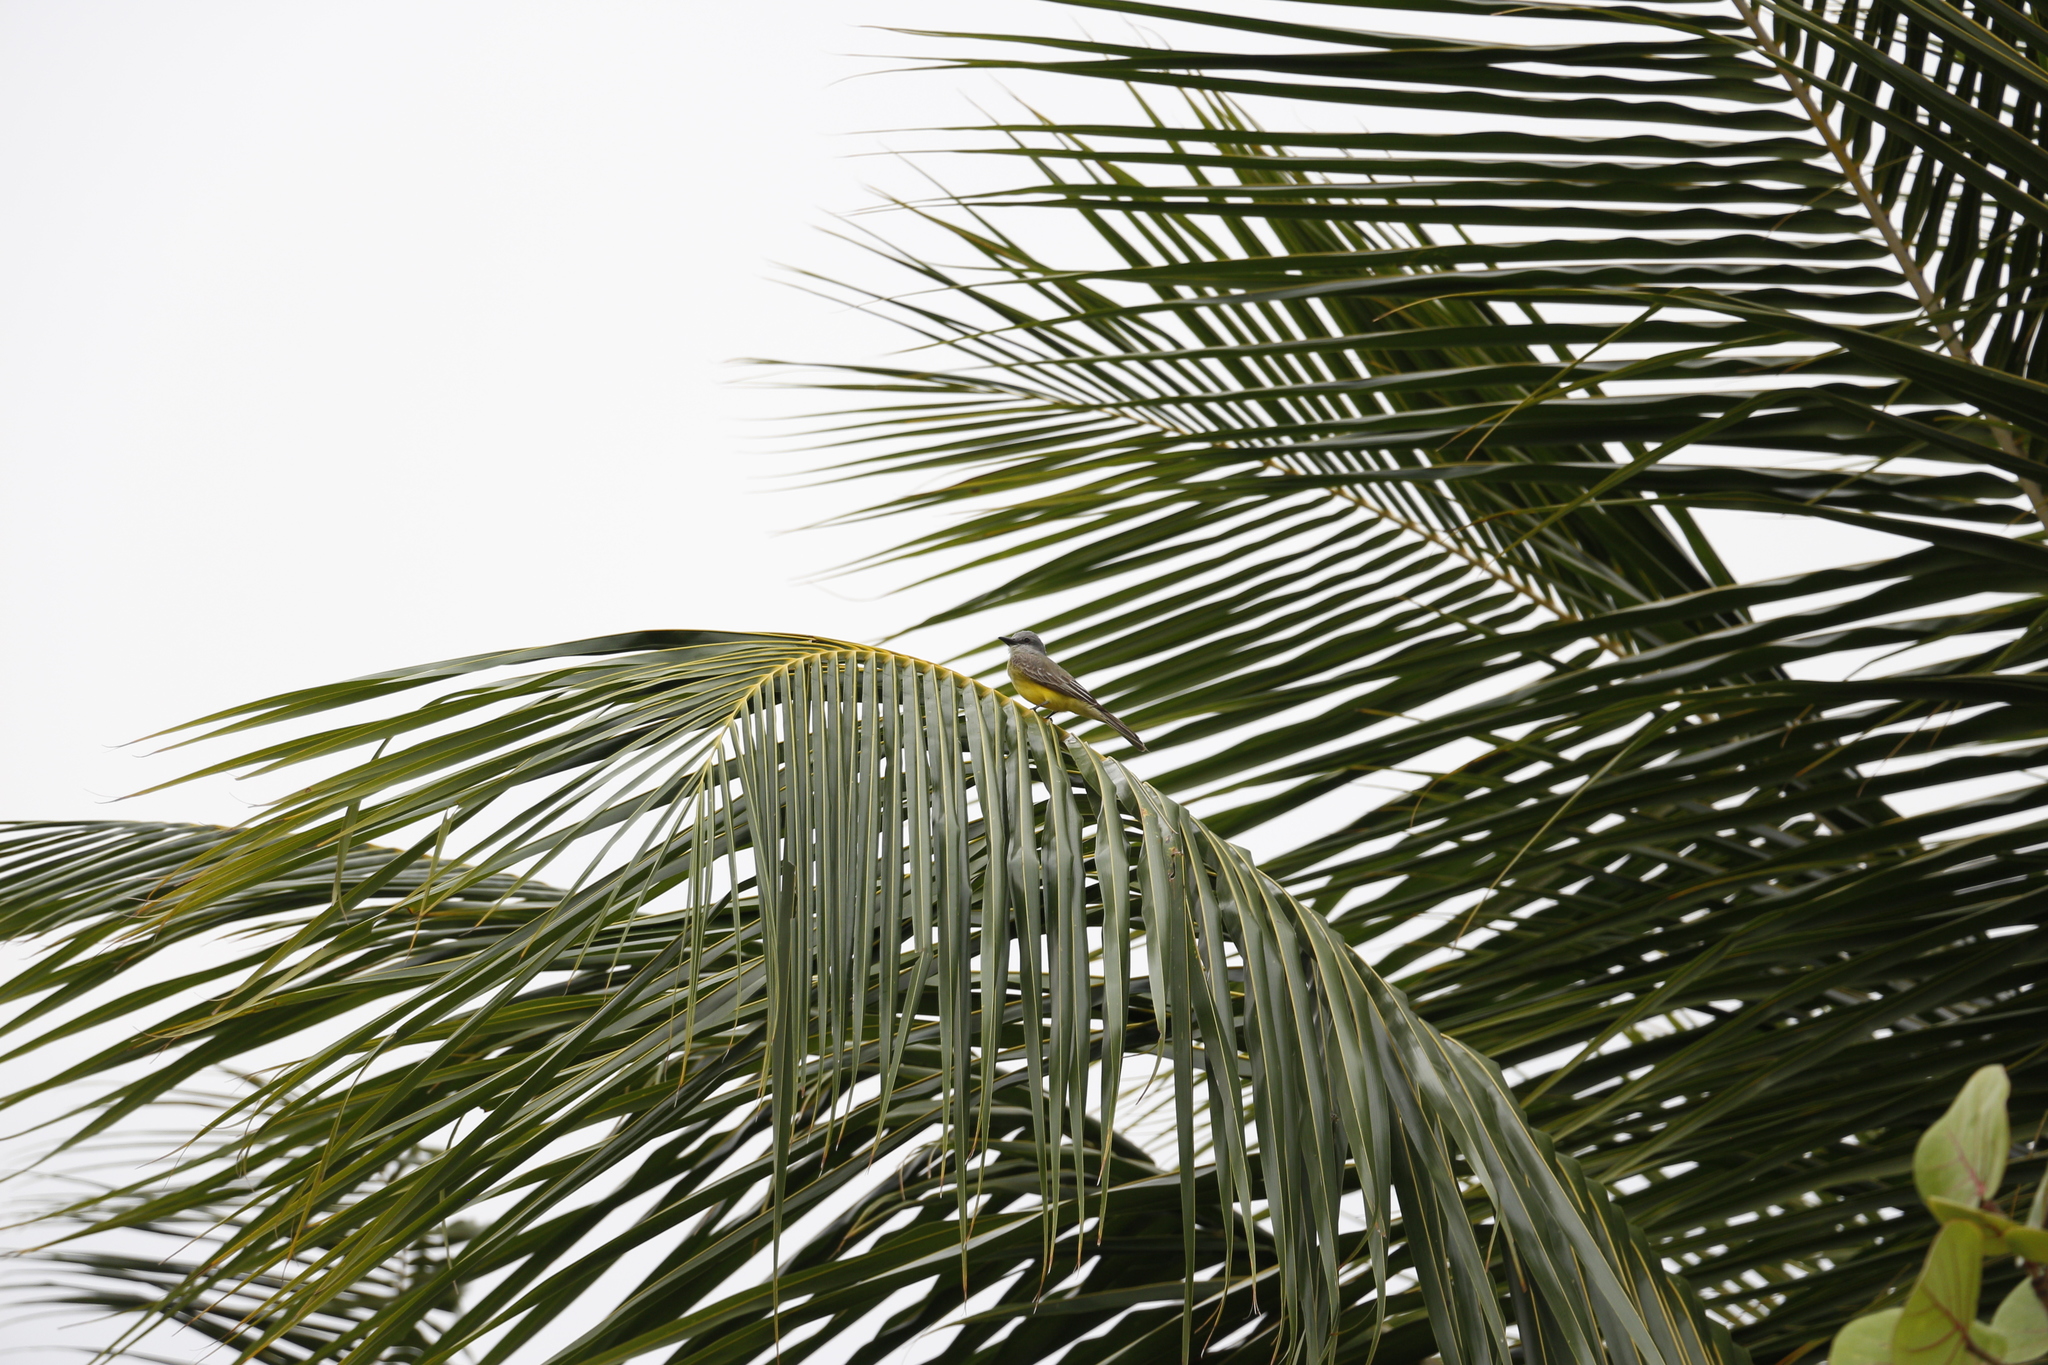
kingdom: Animalia
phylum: Chordata
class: Aves
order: Passeriformes
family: Tyrannidae
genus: Tyrannus
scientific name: Tyrannus melancholicus
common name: Tropical kingbird
